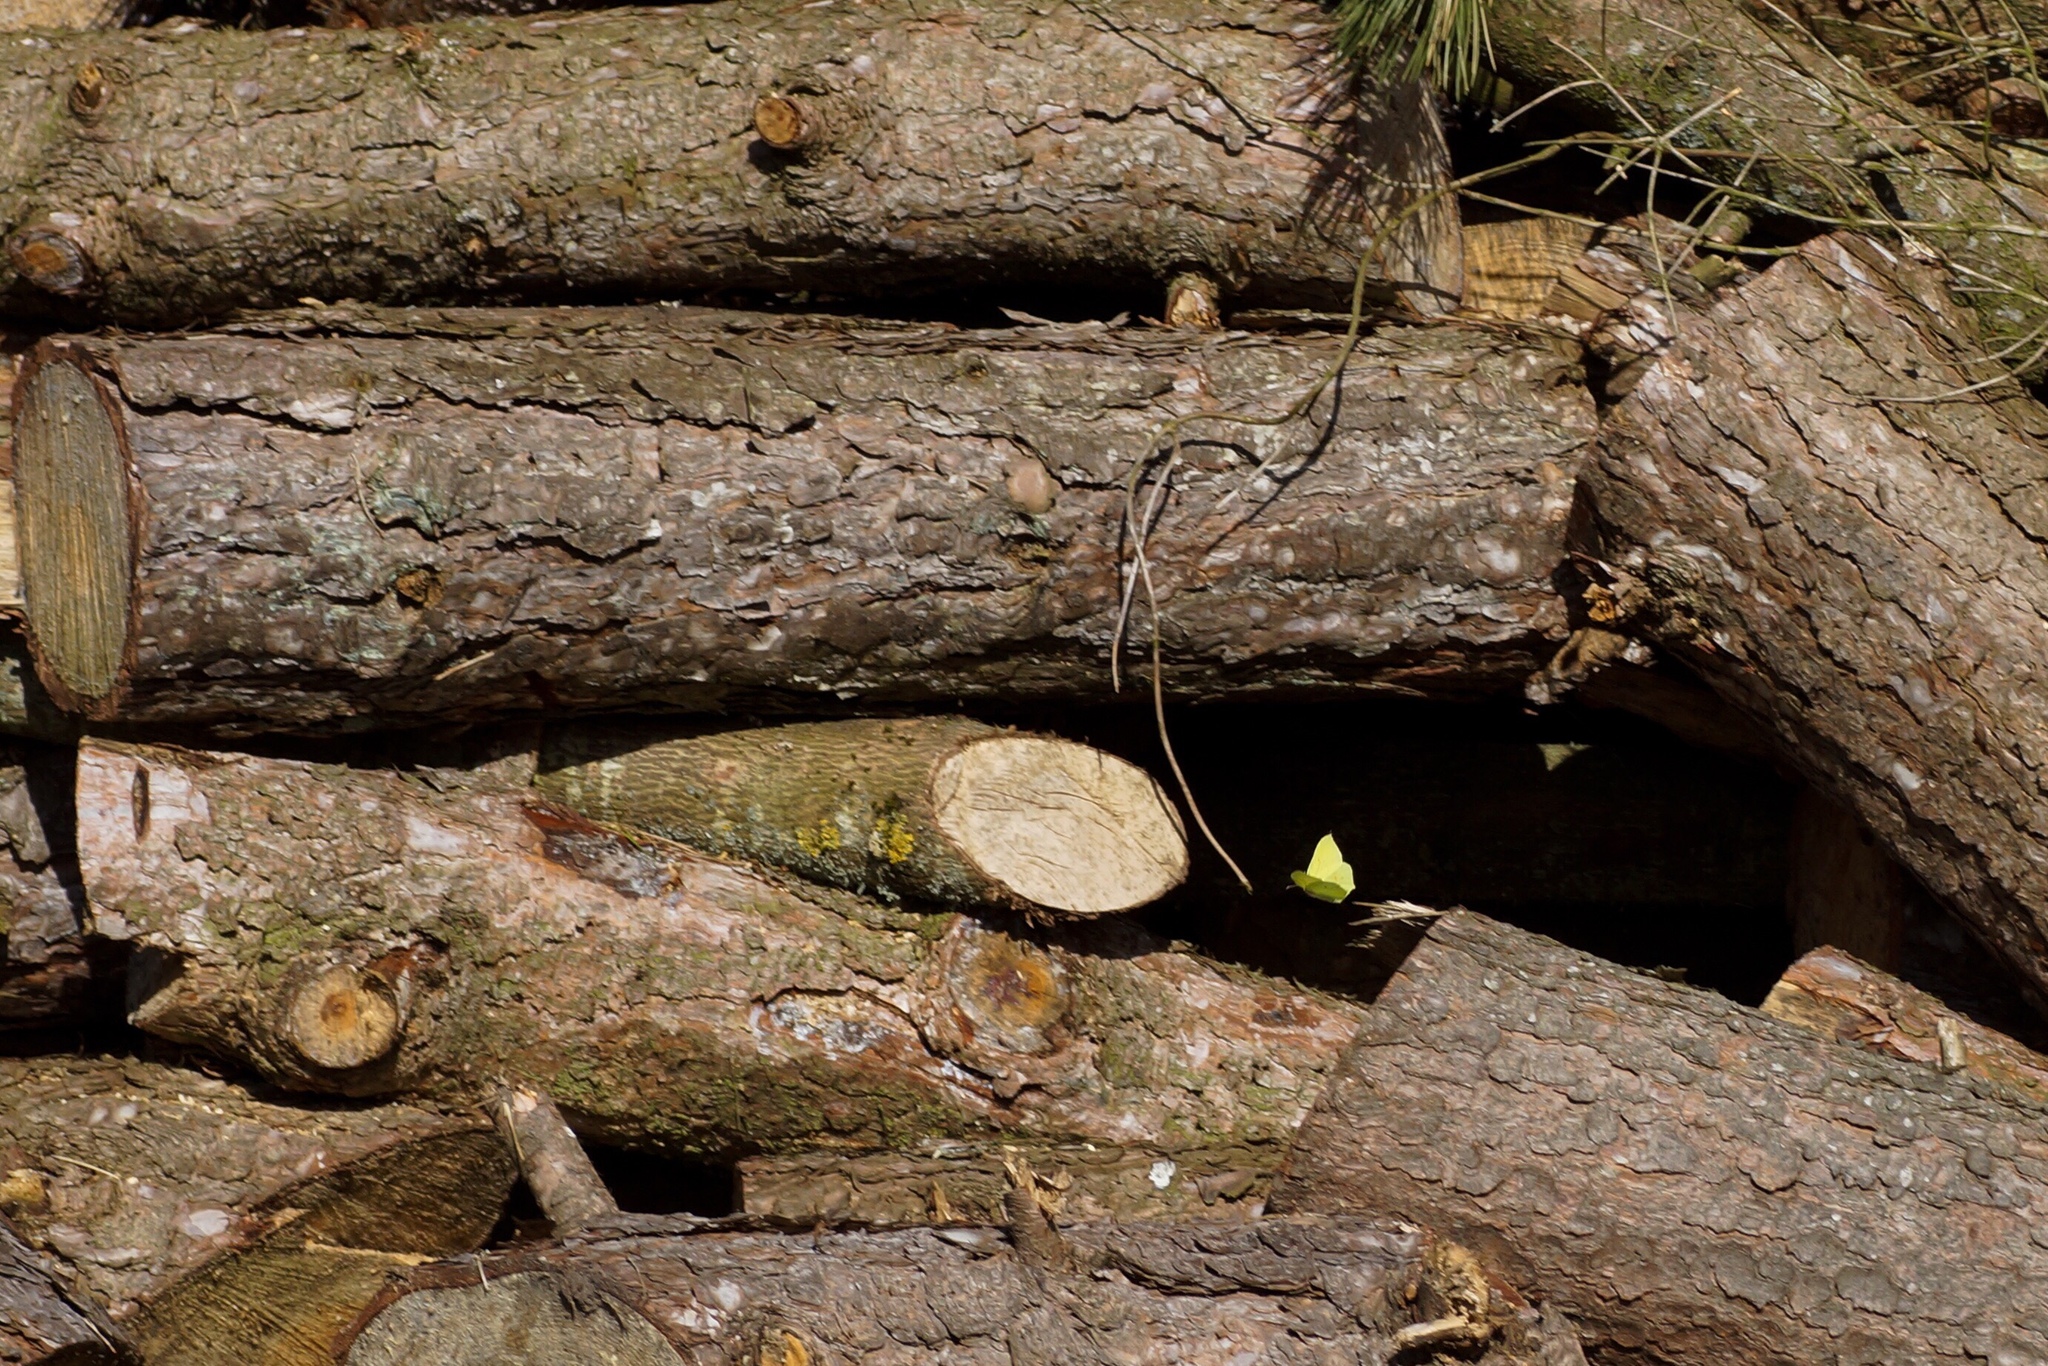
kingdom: Animalia
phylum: Arthropoda
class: Insecta
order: Lepidoptera
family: Pieridae
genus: Gonepteryx
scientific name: Gonepteryx rhamni
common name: Brimstone
